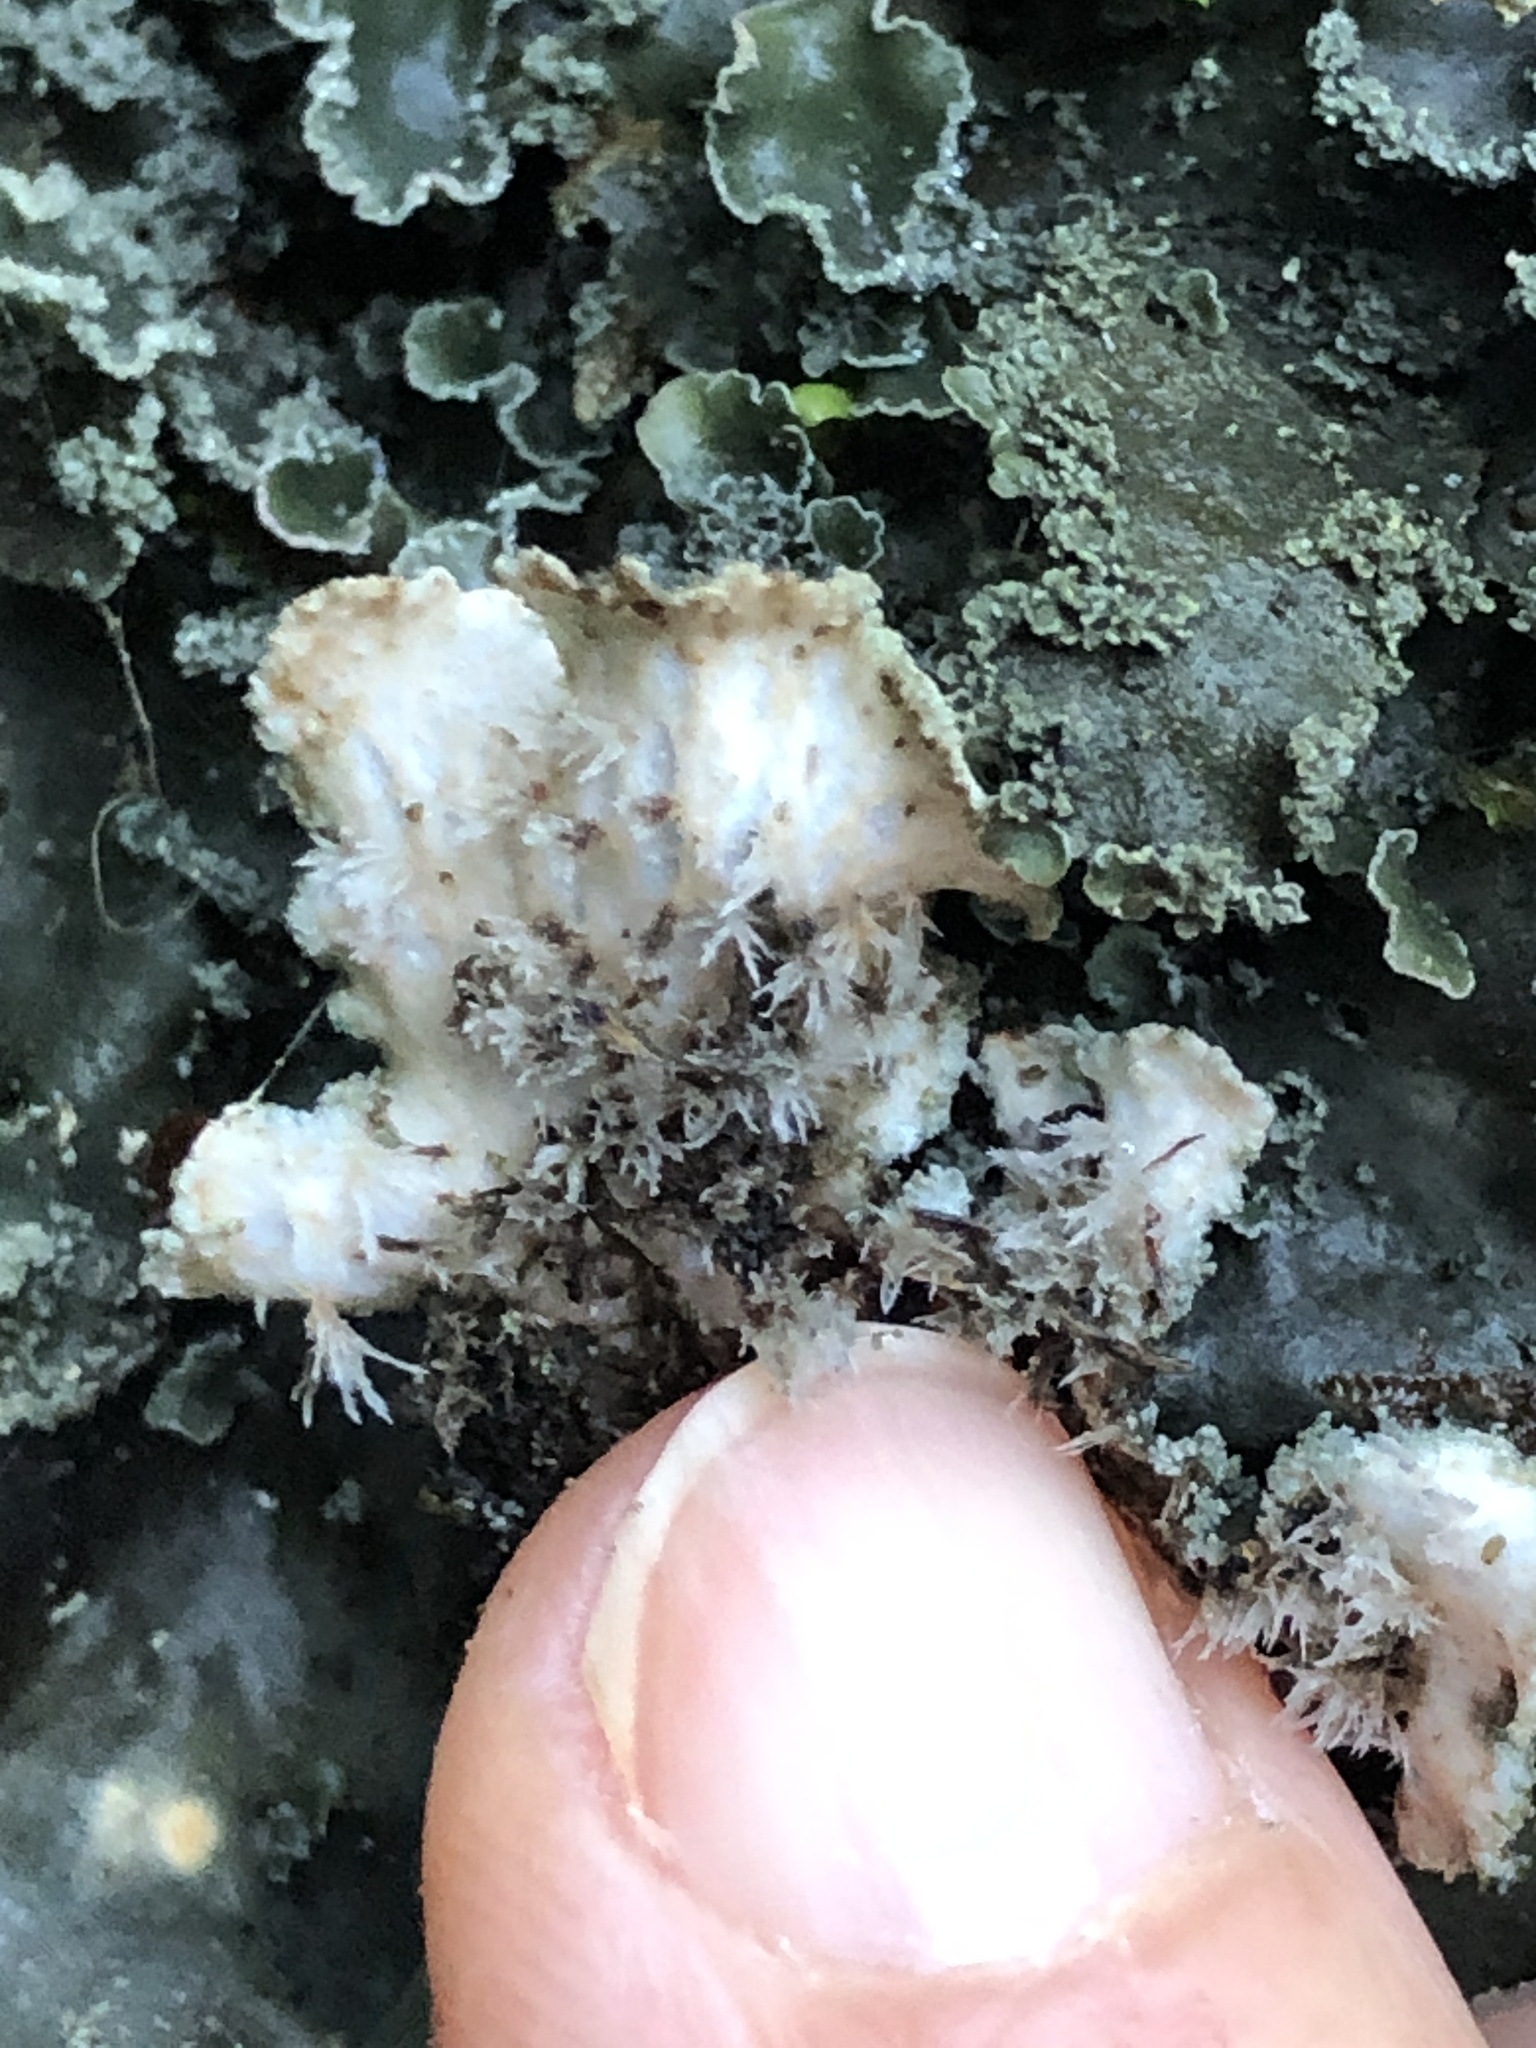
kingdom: Fungi
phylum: Ascomycota
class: Lecanoromycetes
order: Peltigerales
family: Peltigeraceae
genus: Peltigera
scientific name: Peltigera collina
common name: Gritty tree pelt lichen
